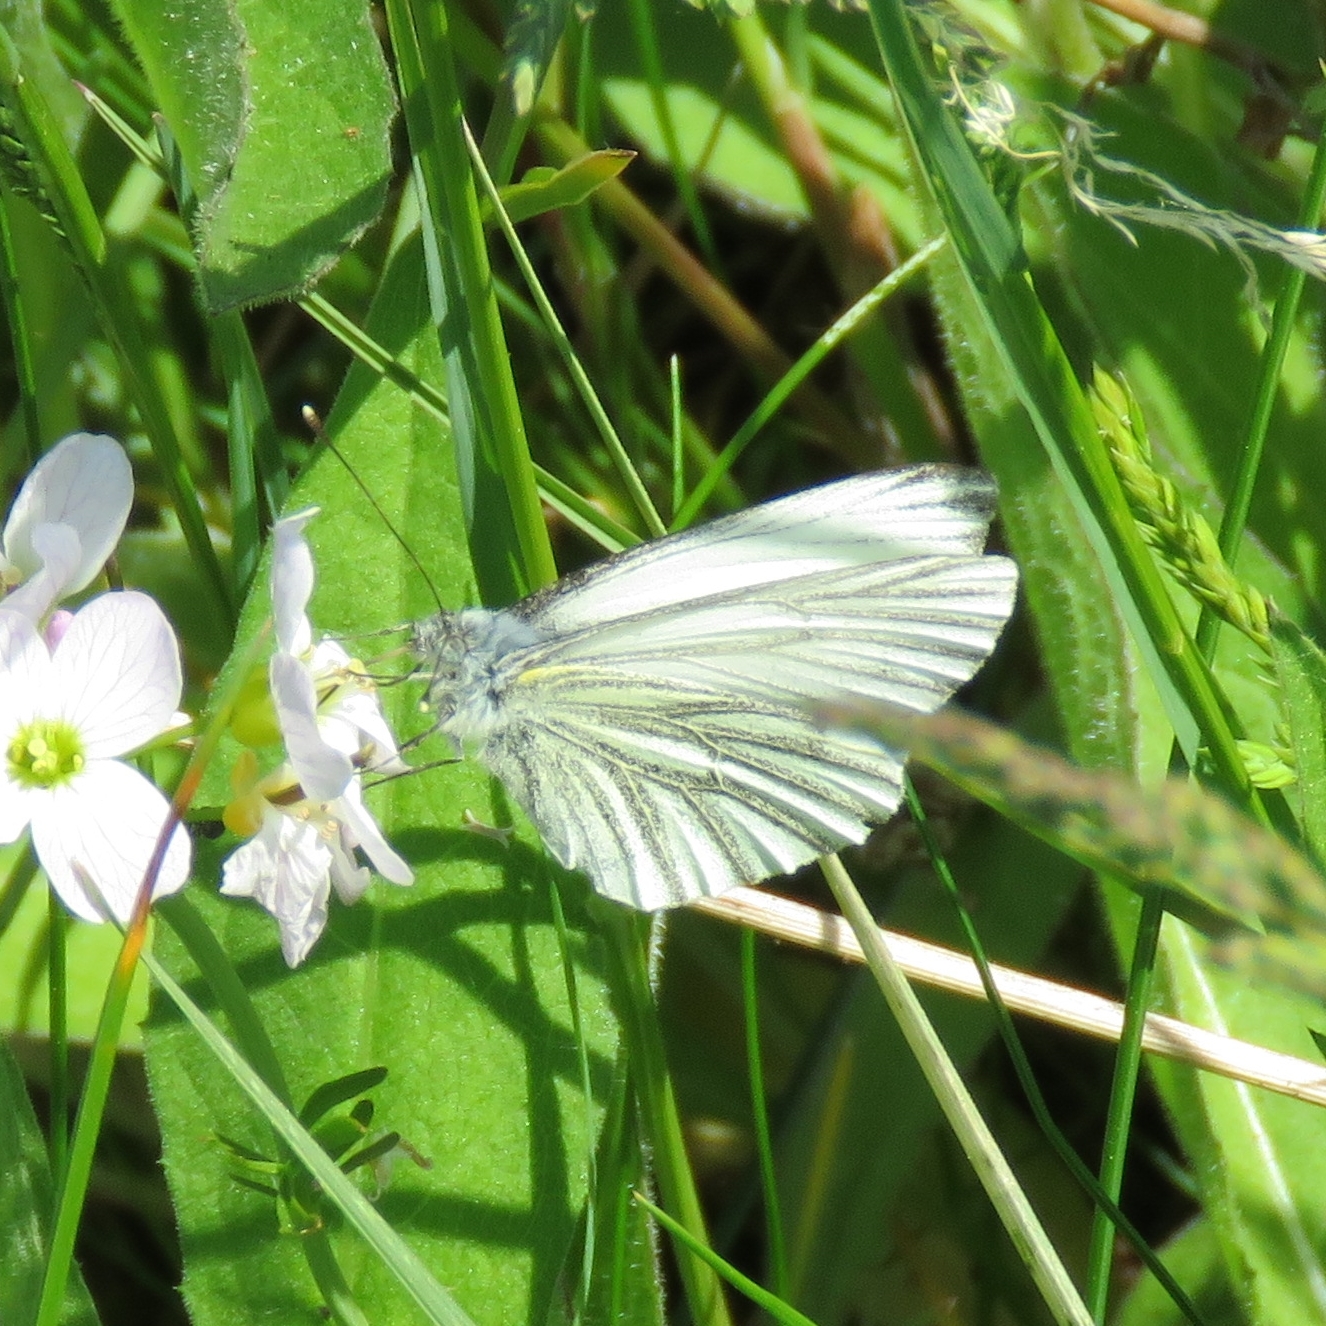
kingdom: Animalia
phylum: Arthropoda
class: Insecta
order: Lepidoptera
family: Pieridae
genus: Pieris
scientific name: Pieris napi
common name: Green-veined white
